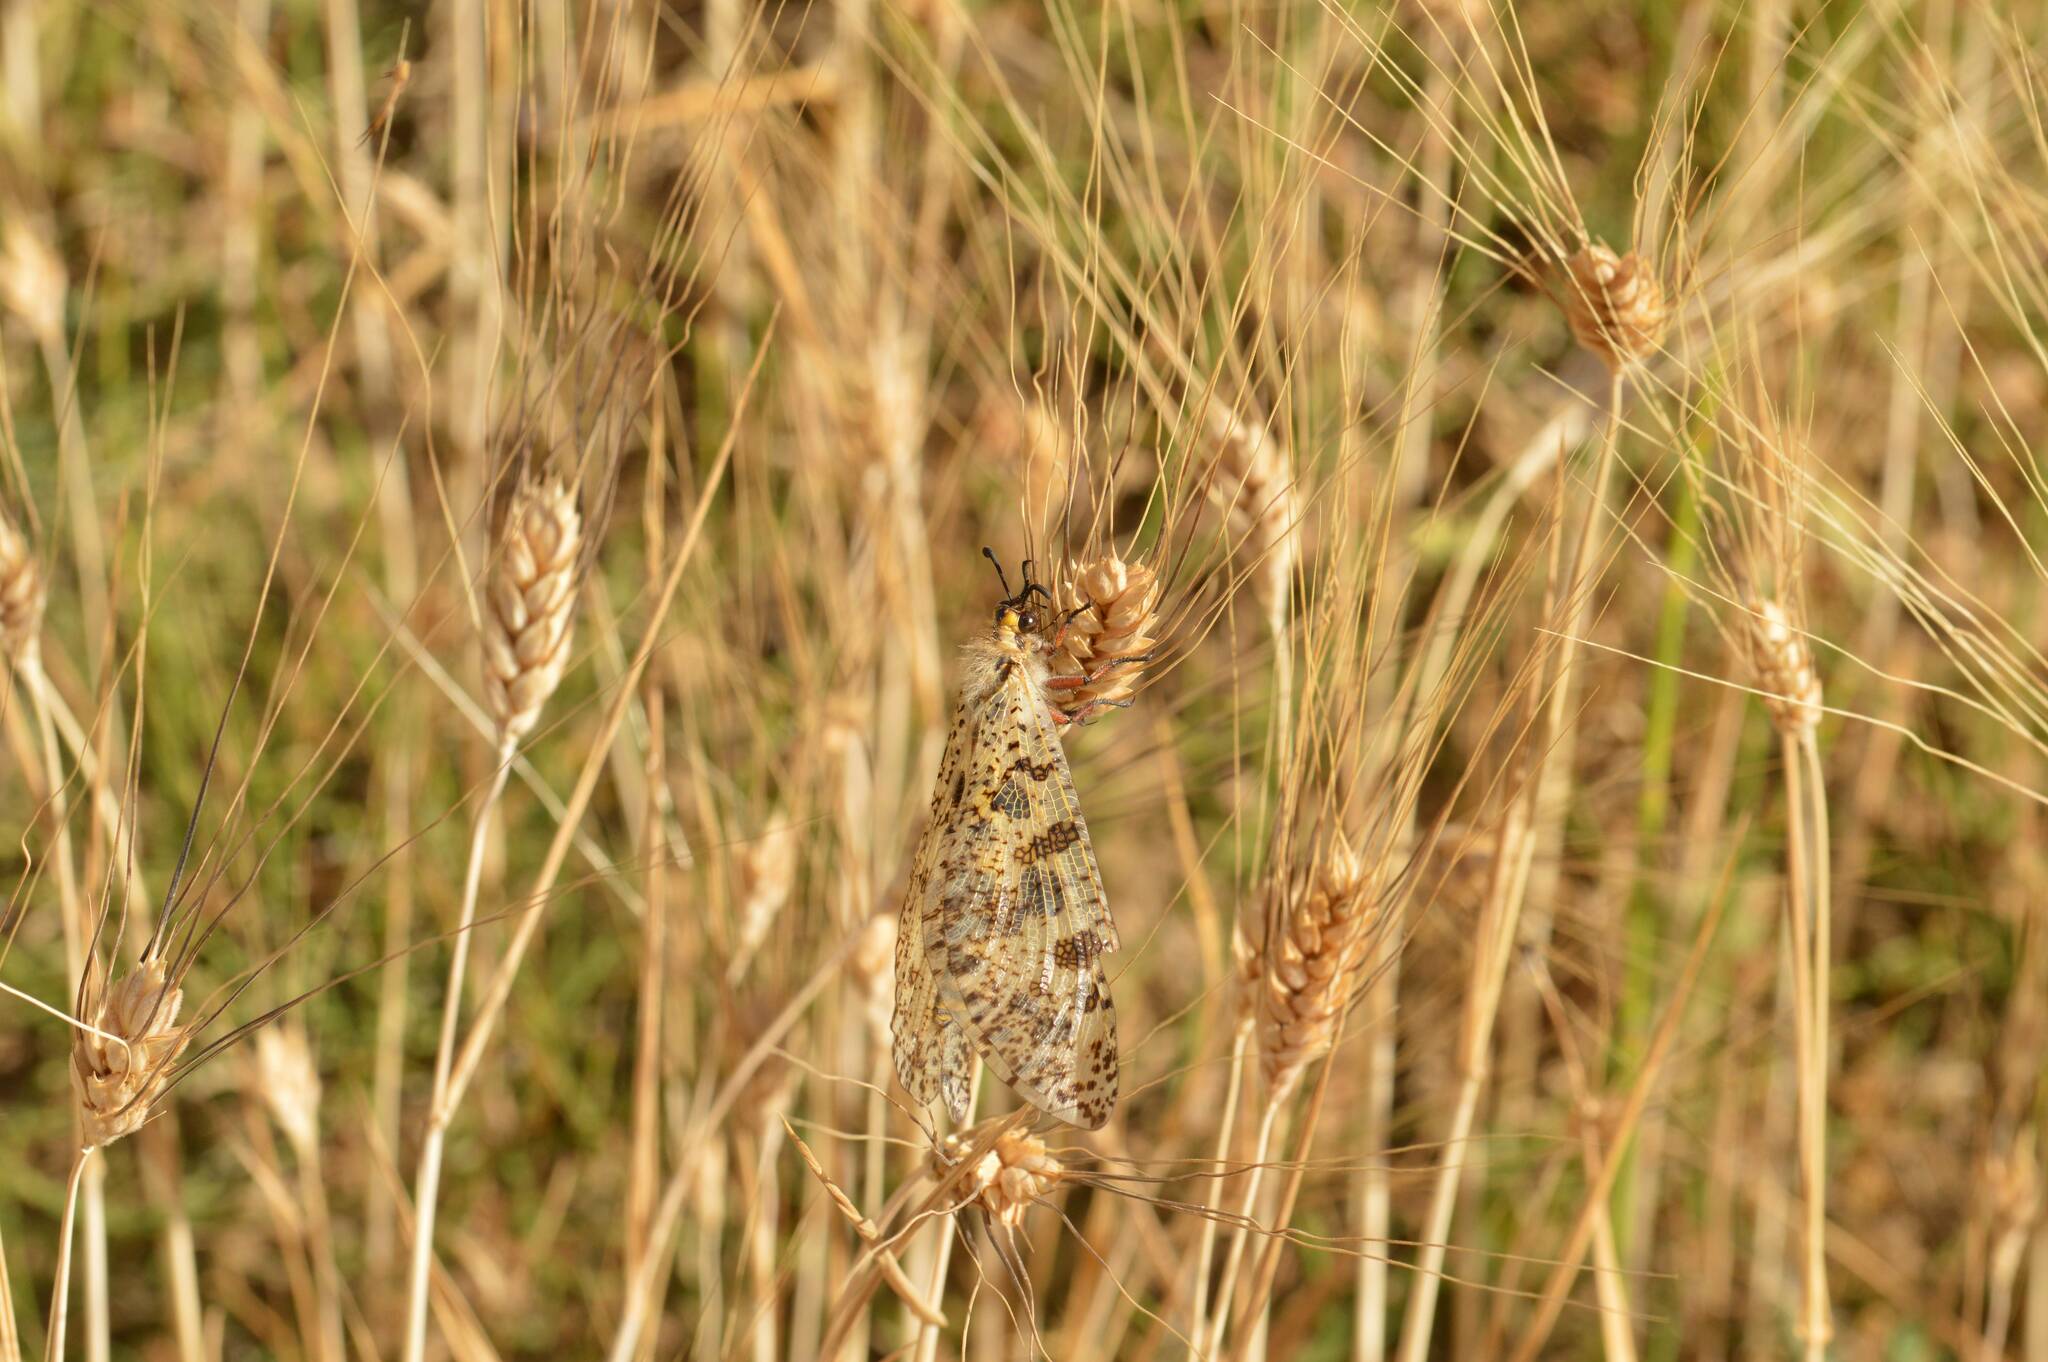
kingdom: Animalia
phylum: Arthropoda
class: Insecta
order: Neuroptera
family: Myrmeleontidae
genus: Palpares
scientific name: Palpares libelluloides
